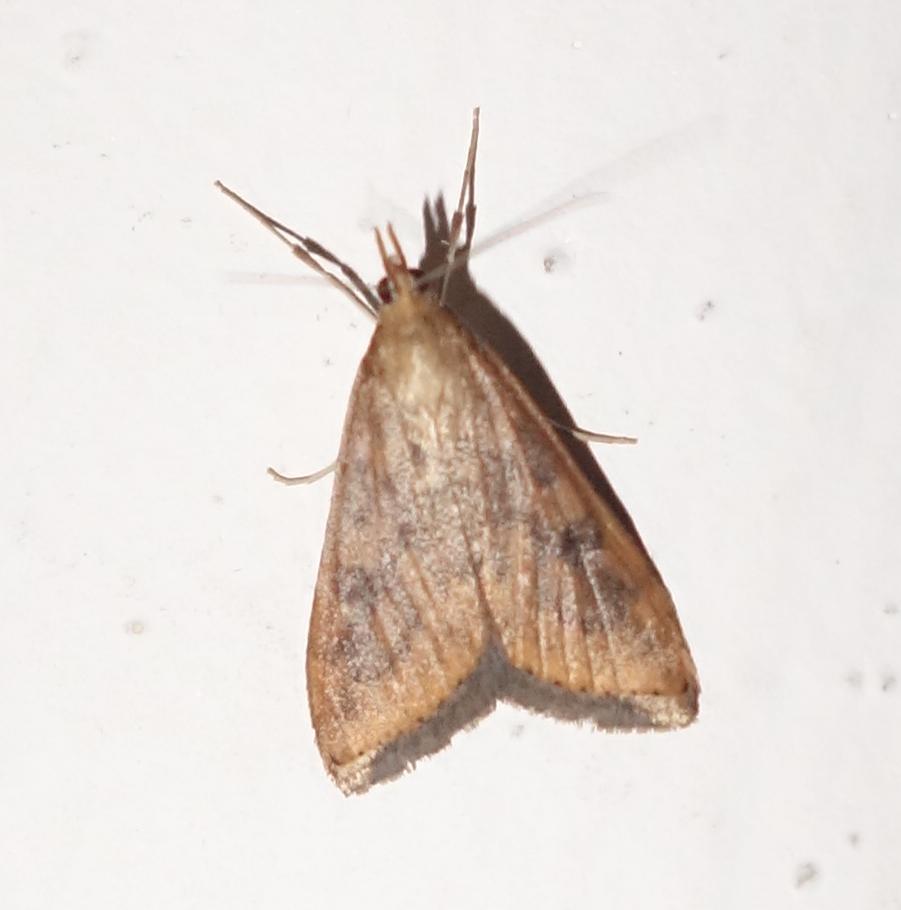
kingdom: Animalia
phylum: Arthropoda
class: Insecta
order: Lepidoptera
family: Crambidae
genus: Udea
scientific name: Udea ferrugalis
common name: Rusty dot
